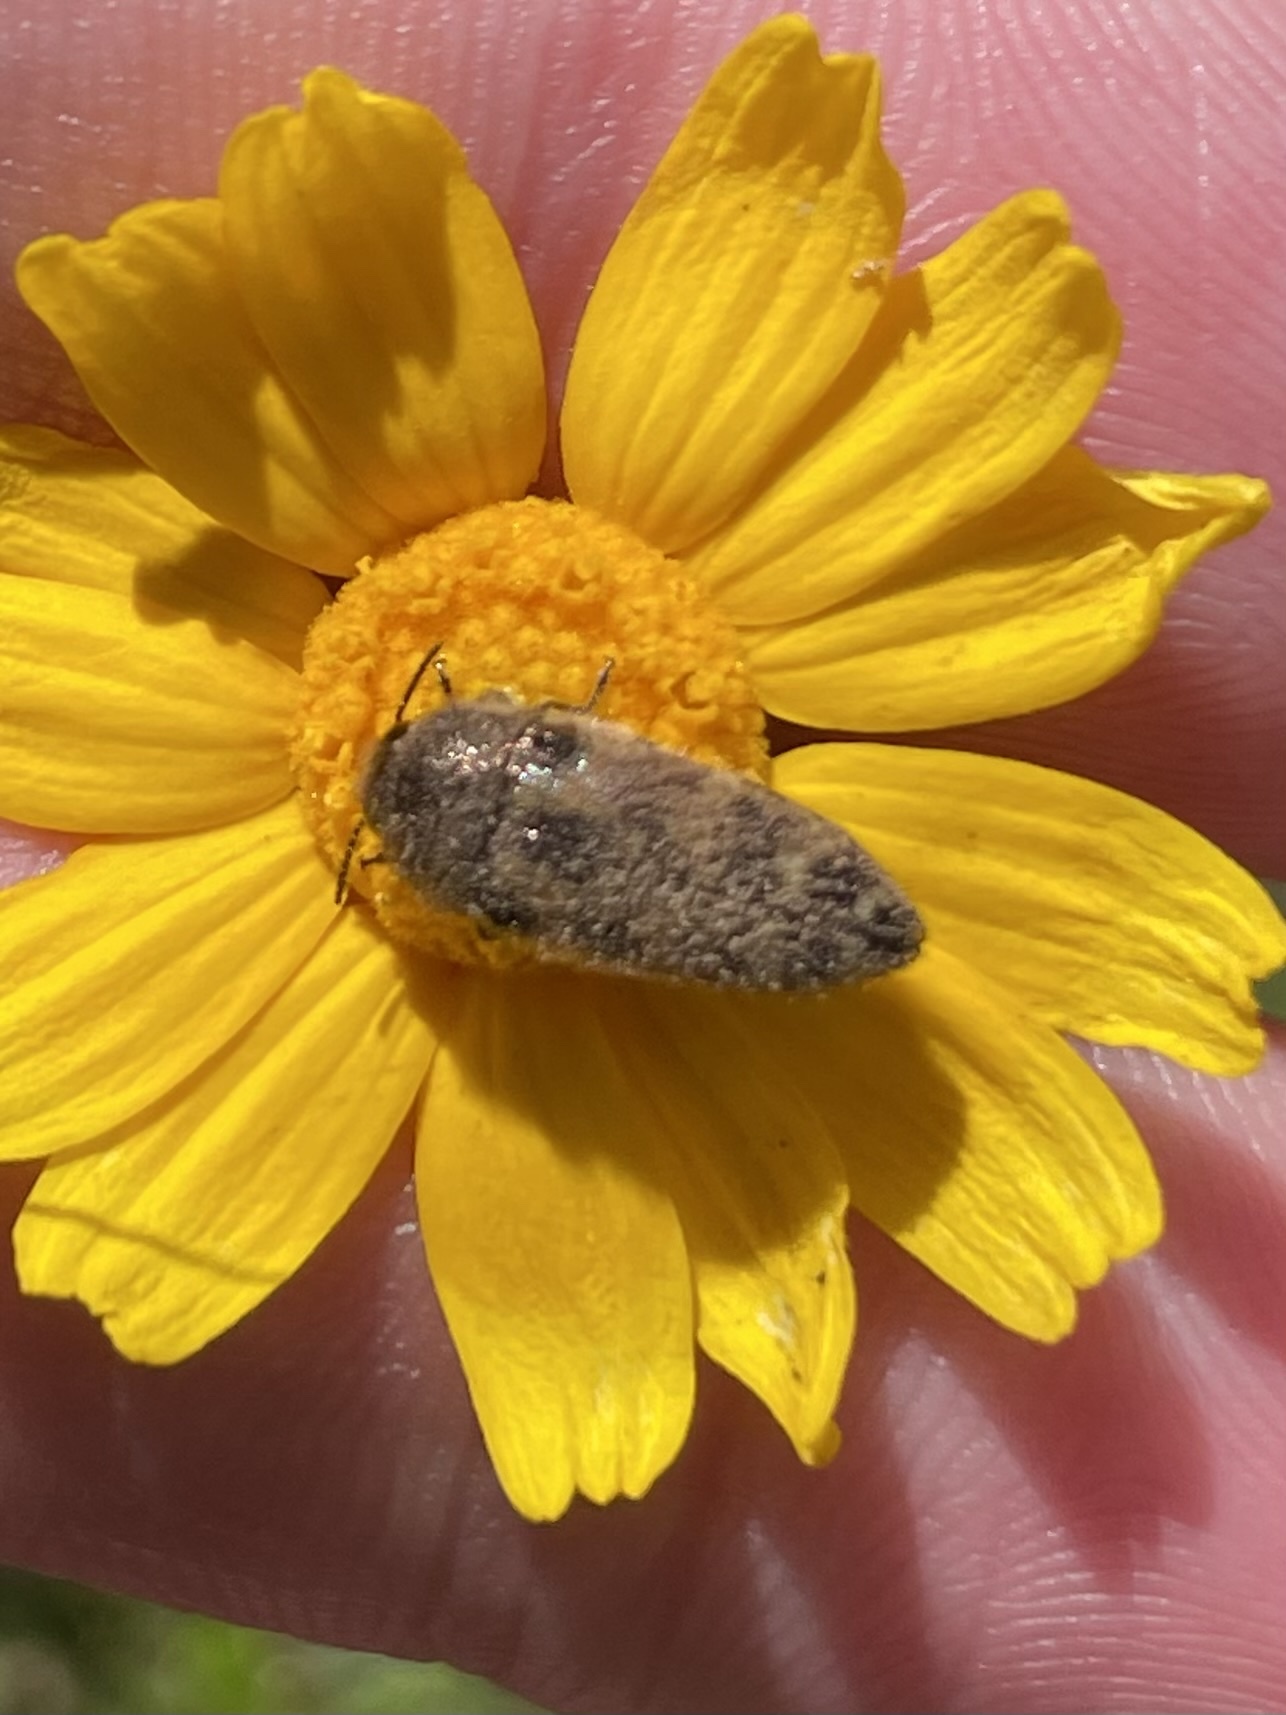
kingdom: Animalia
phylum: Arthropoda
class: Insecta
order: Coleoptera
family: Buprestidae
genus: Acmaeodera
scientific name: Acmaeodera mixta
